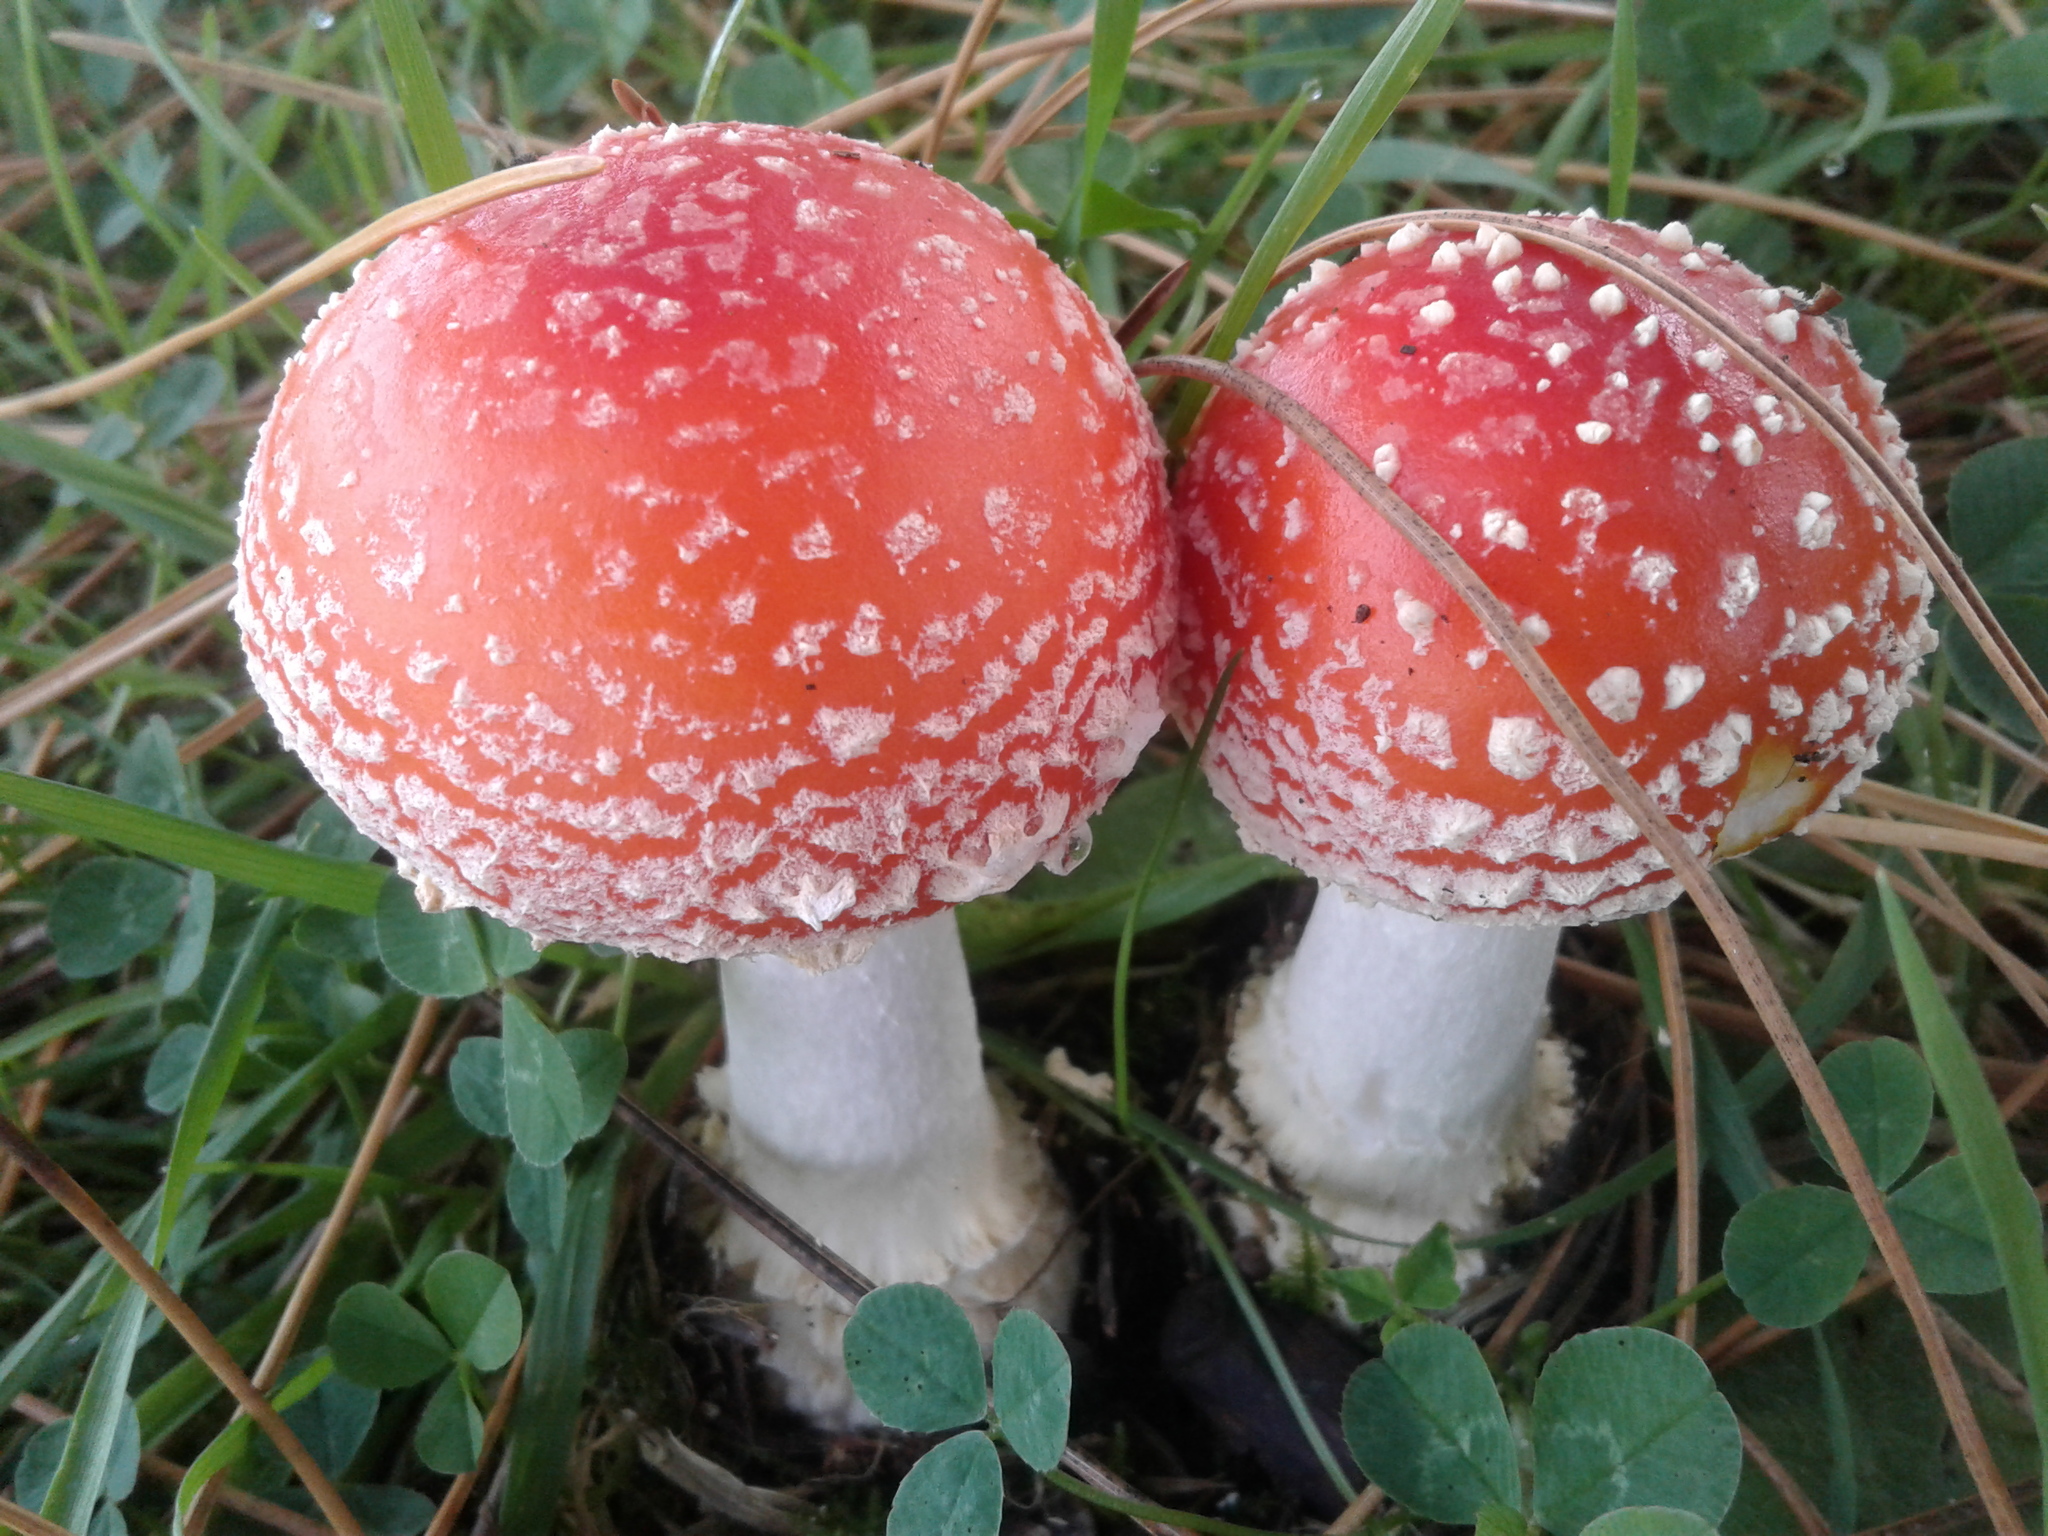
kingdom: Fungi
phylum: Basidiomycota
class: Agaricomycetes
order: Agaricales
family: Amanitaceae
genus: Amanita
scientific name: Amanita muscaria
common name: Fly agaric
